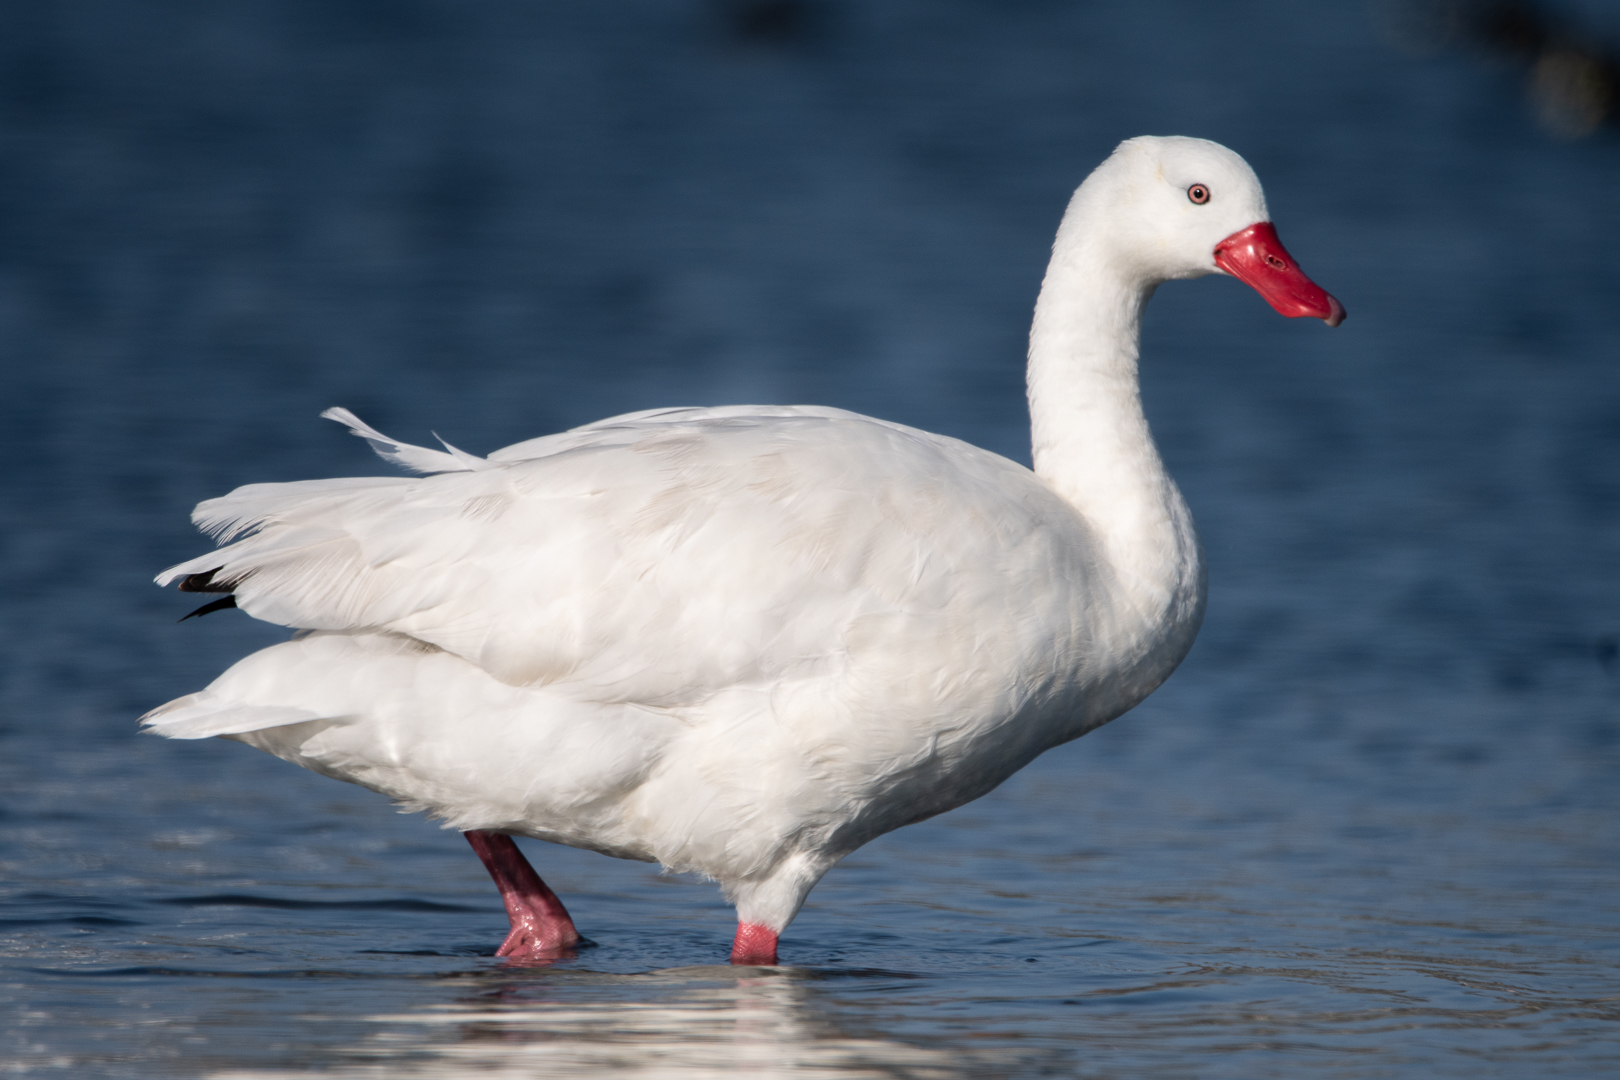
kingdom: Animalia
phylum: Chordata
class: Aves
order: Anseriformes
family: Anatidae
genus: Coscoroba
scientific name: Coscoroba coscoroba
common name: Coscoroba swan
